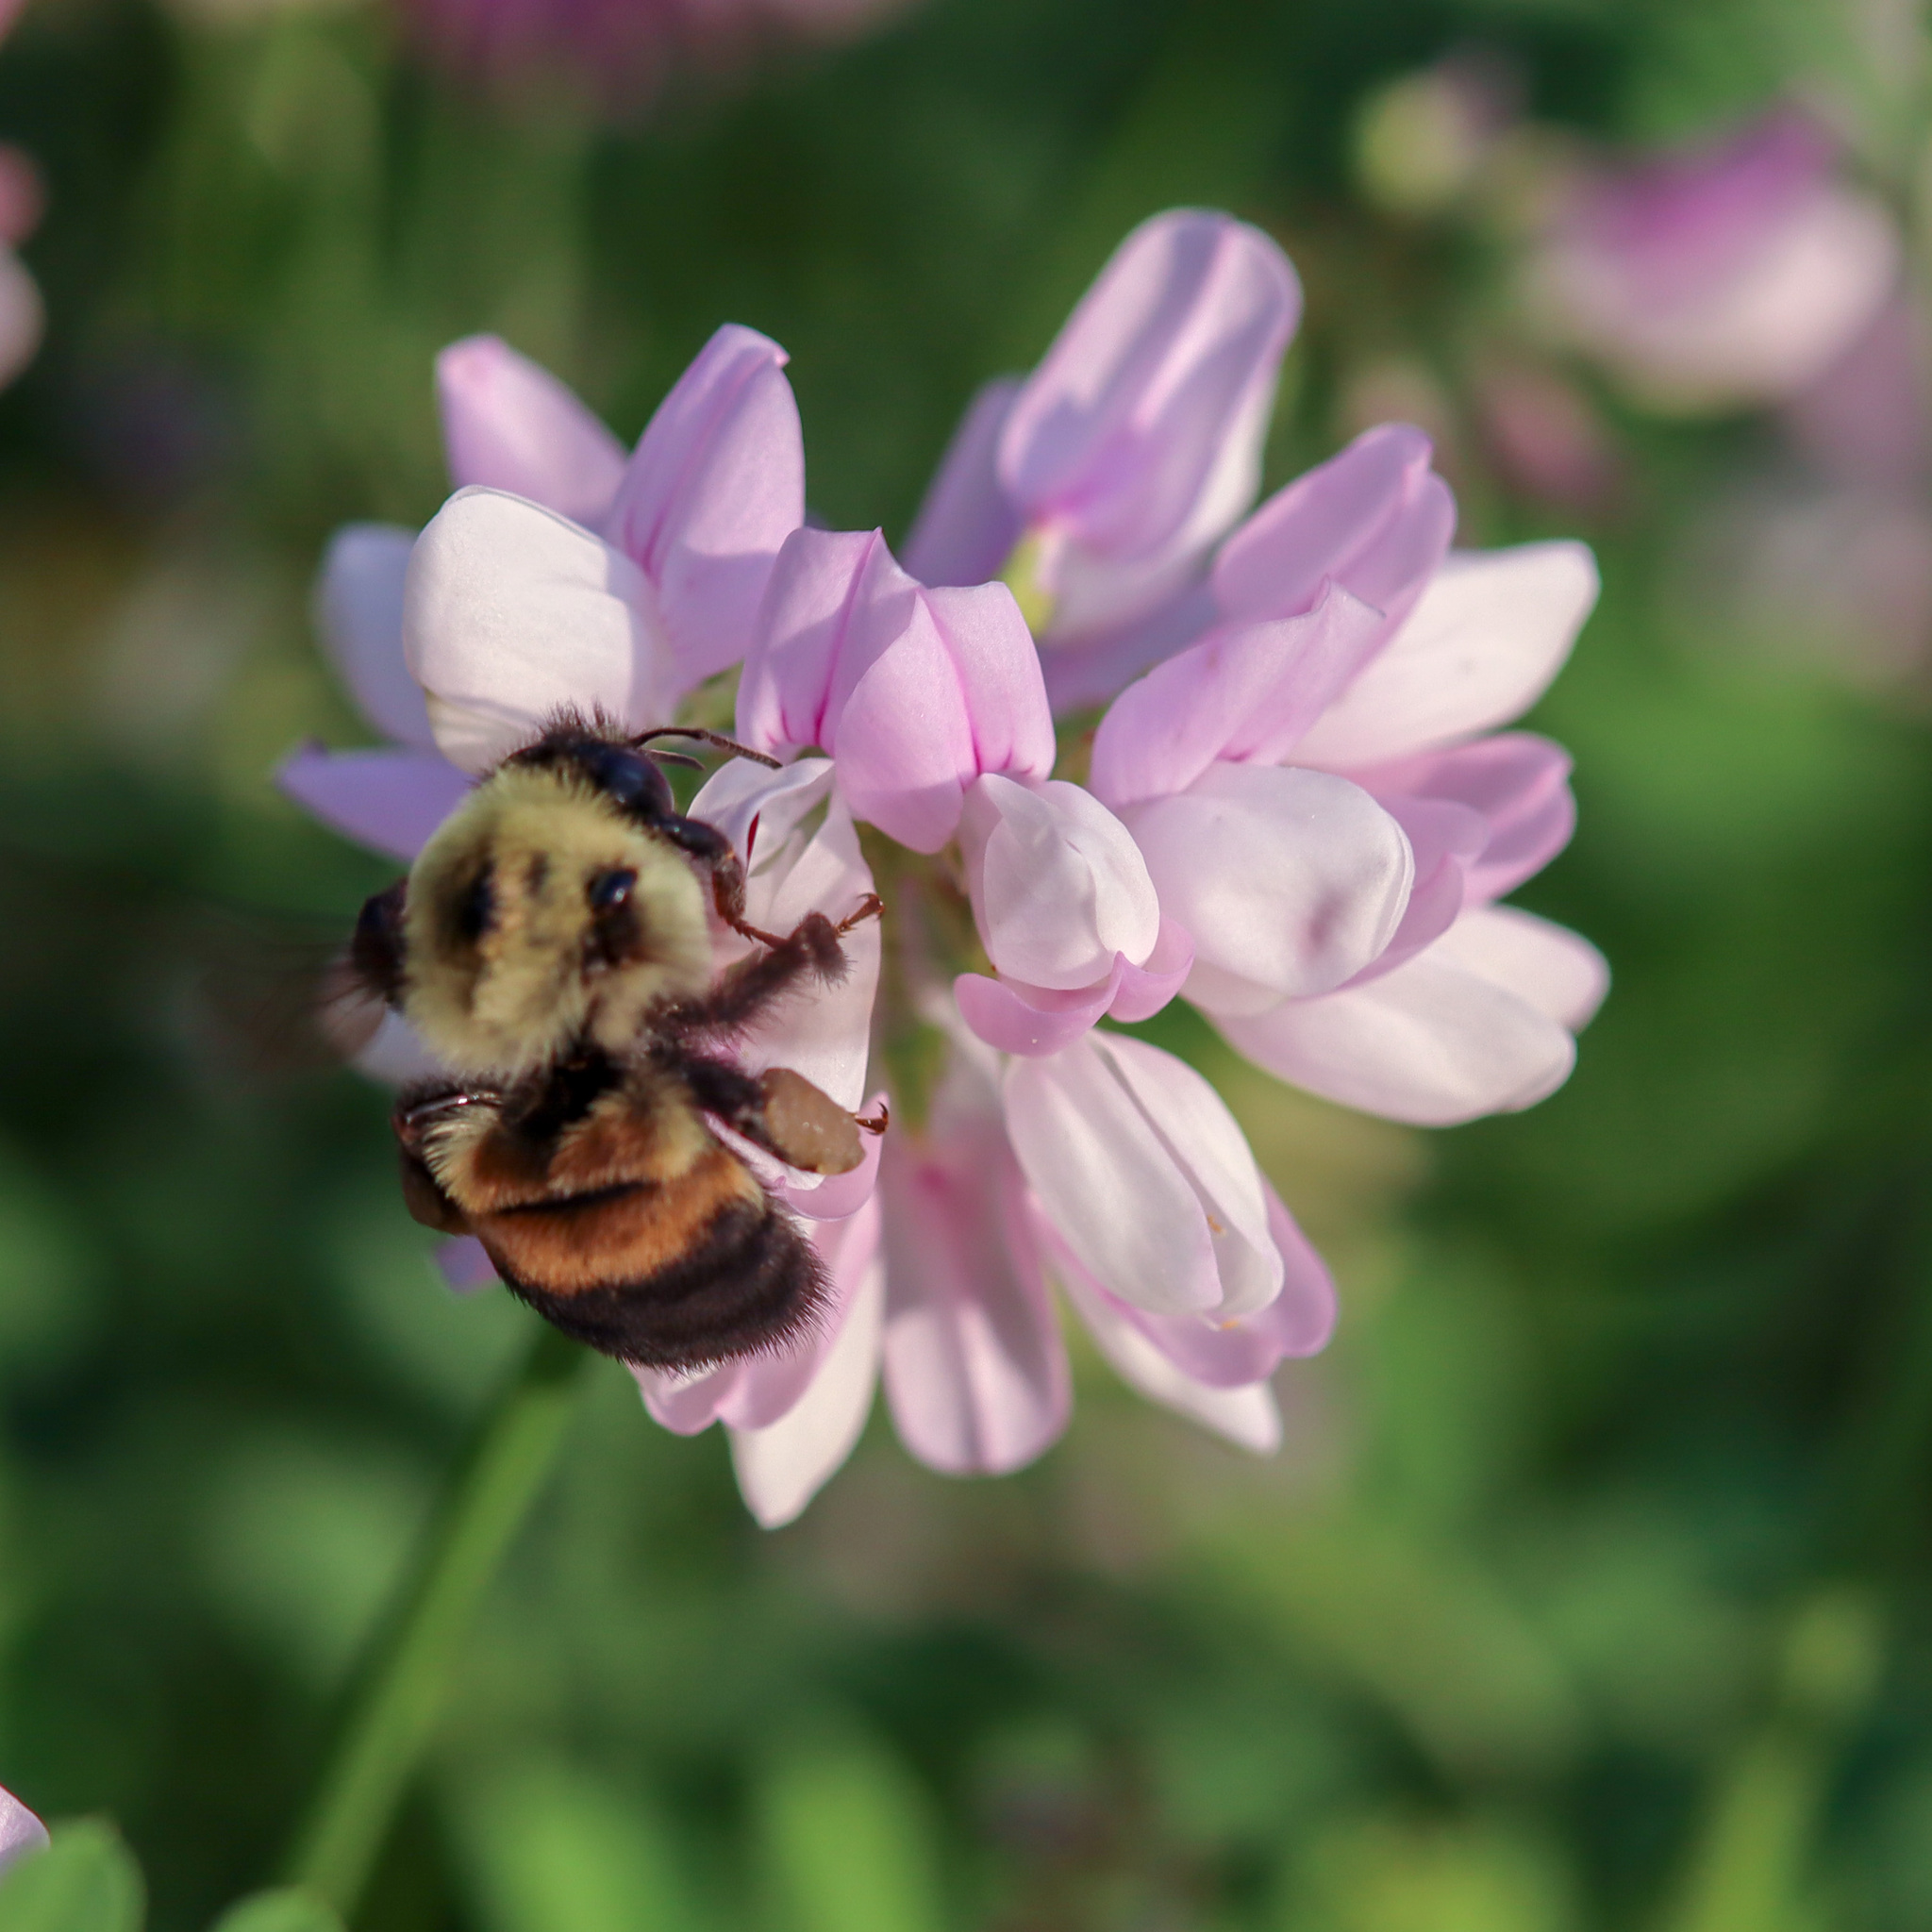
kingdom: Animalia
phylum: Arthropoda
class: Insecta
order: Hymenoptera
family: Apidae
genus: Bombus
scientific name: Bombus griseocollis
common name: Brown-belted bumble bee
